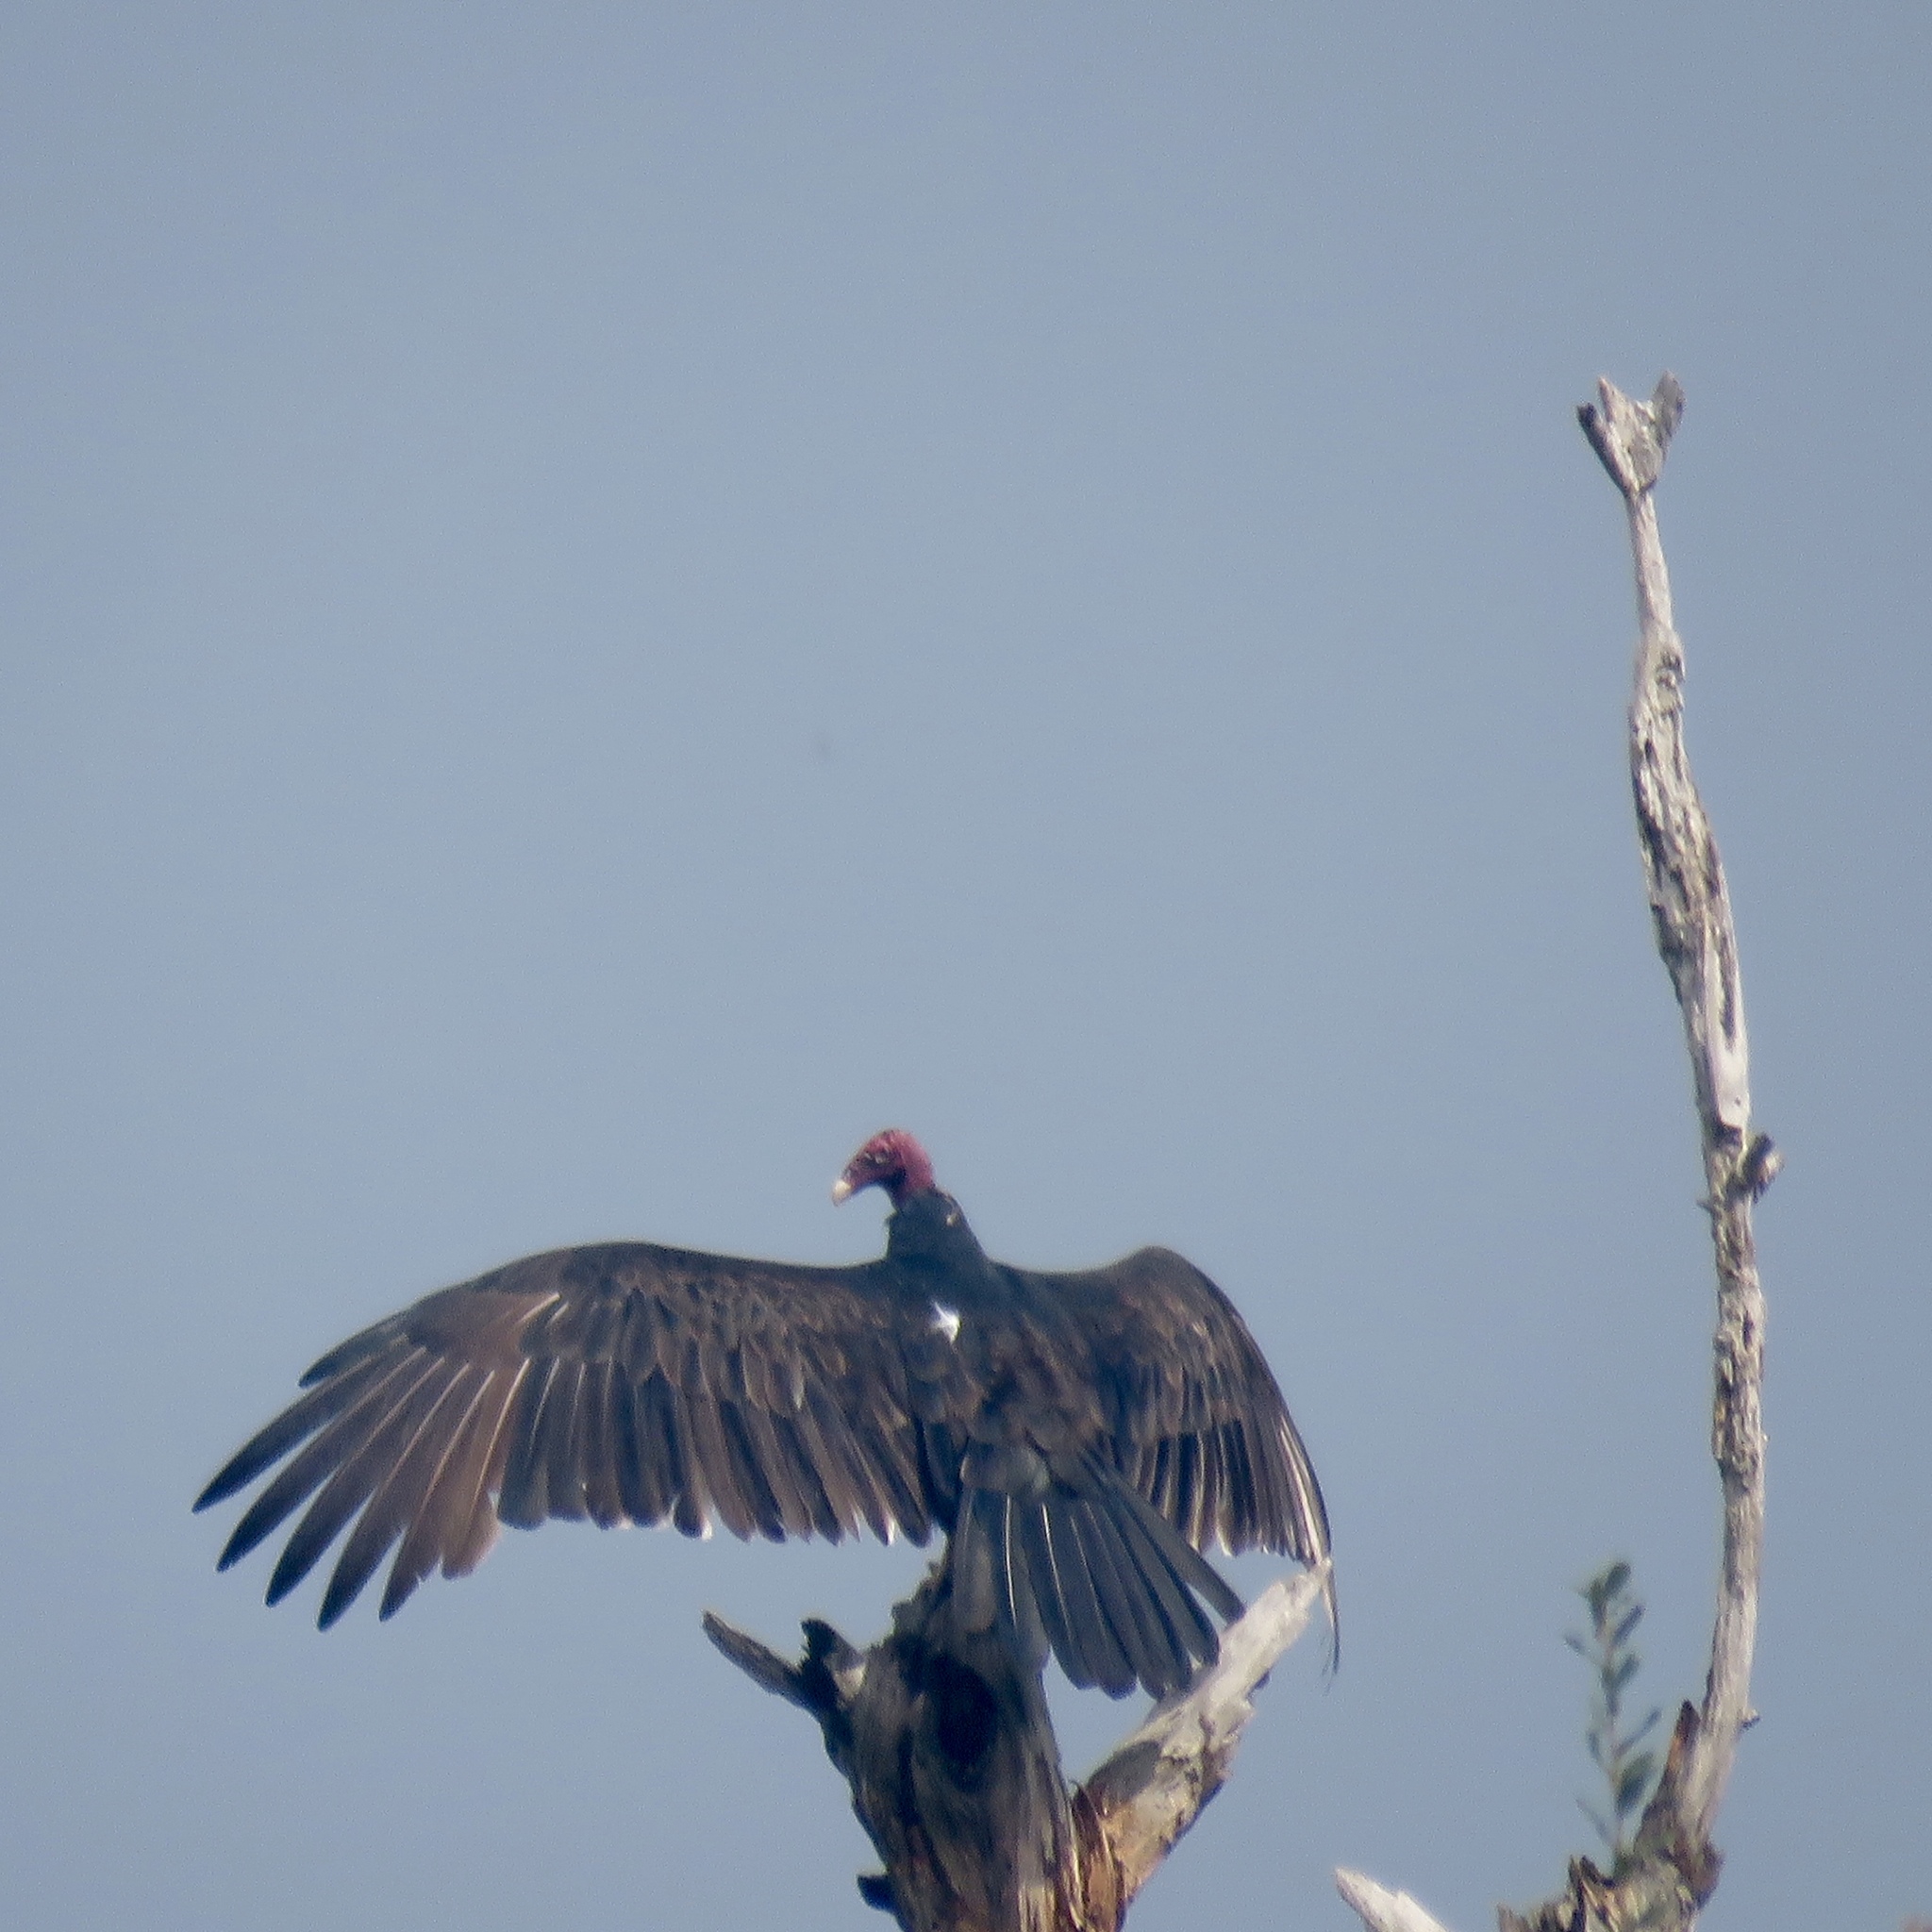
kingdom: Animalia
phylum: Chordata
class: Aves
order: Accipitriformes
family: Cathartidae
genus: Cathartes
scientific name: Cathartes aura
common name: Turkey vulture
